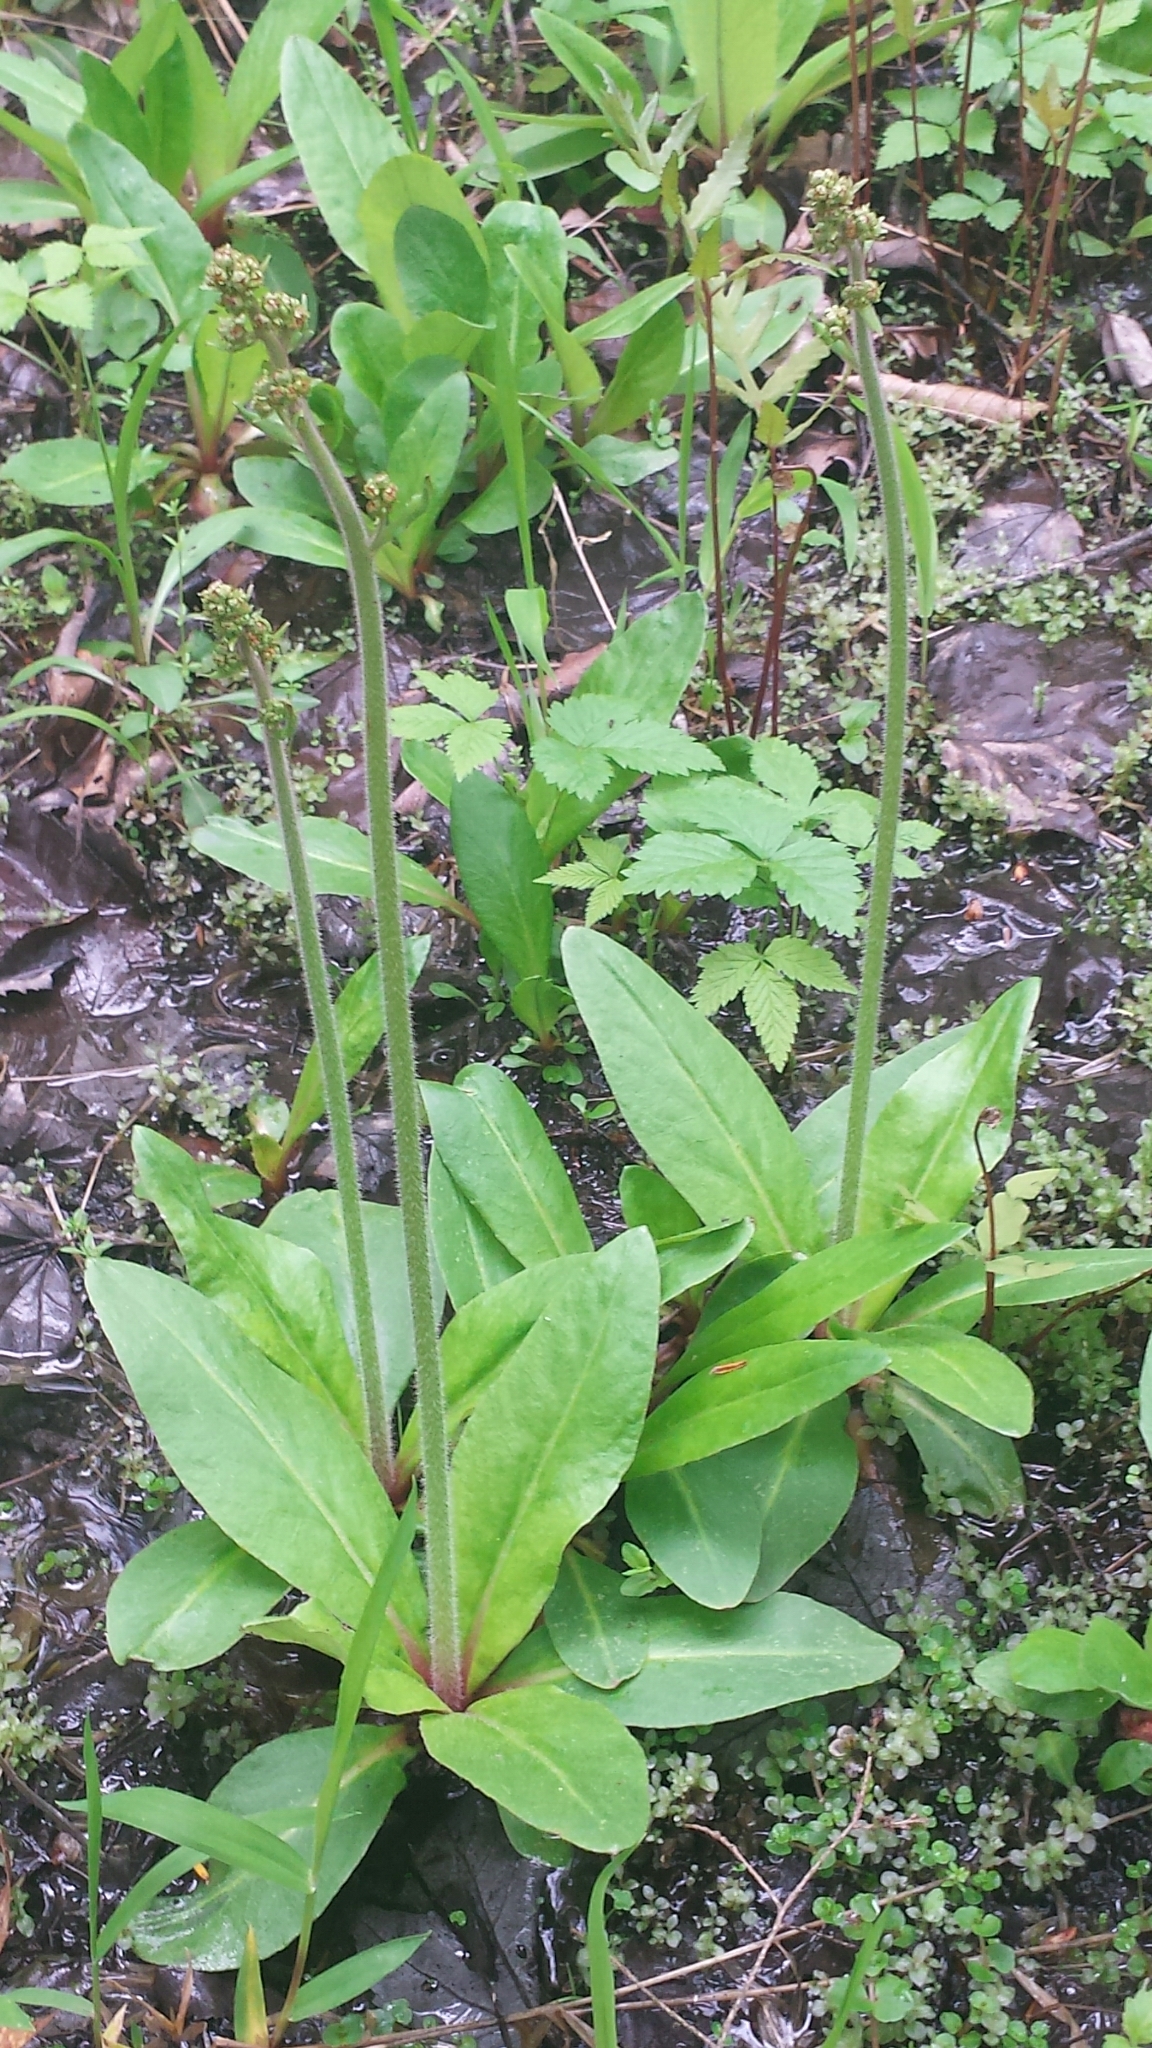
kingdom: Plantae
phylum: Tracheophyta
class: Magnoliopsida
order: Saxifragales
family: Saxifragaceae
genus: Micranthes
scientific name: Micranthes pensylvanica
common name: Marsh saxifrage
